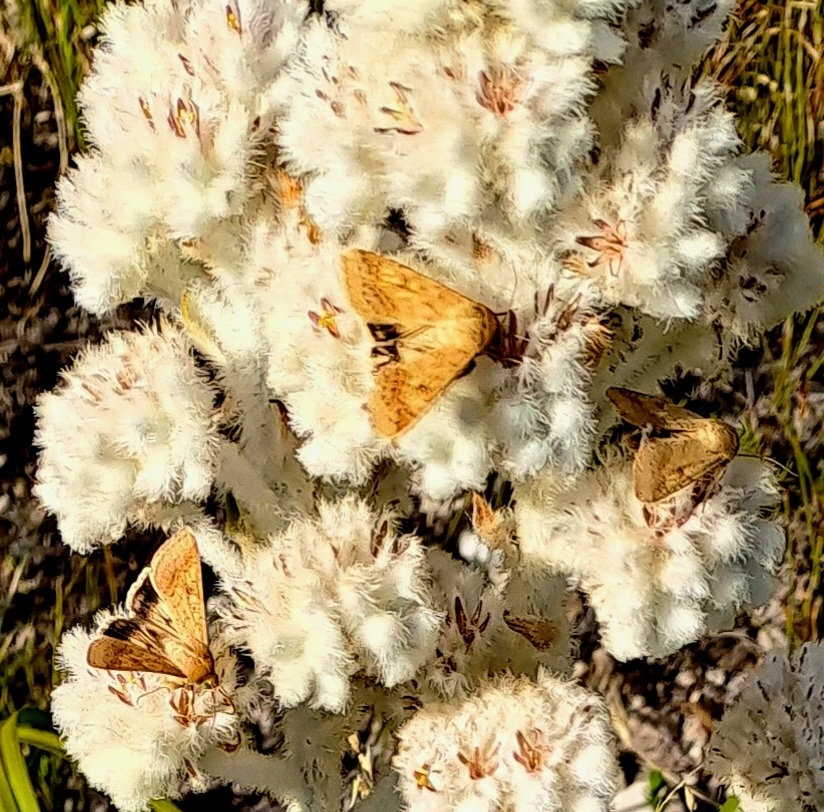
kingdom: Animalia
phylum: Arthropoda
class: Insecta
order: Lepidoptera
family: Noctuidae
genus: Helicoverpa
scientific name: Helicoverpa armigera
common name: Cotton bollworm
